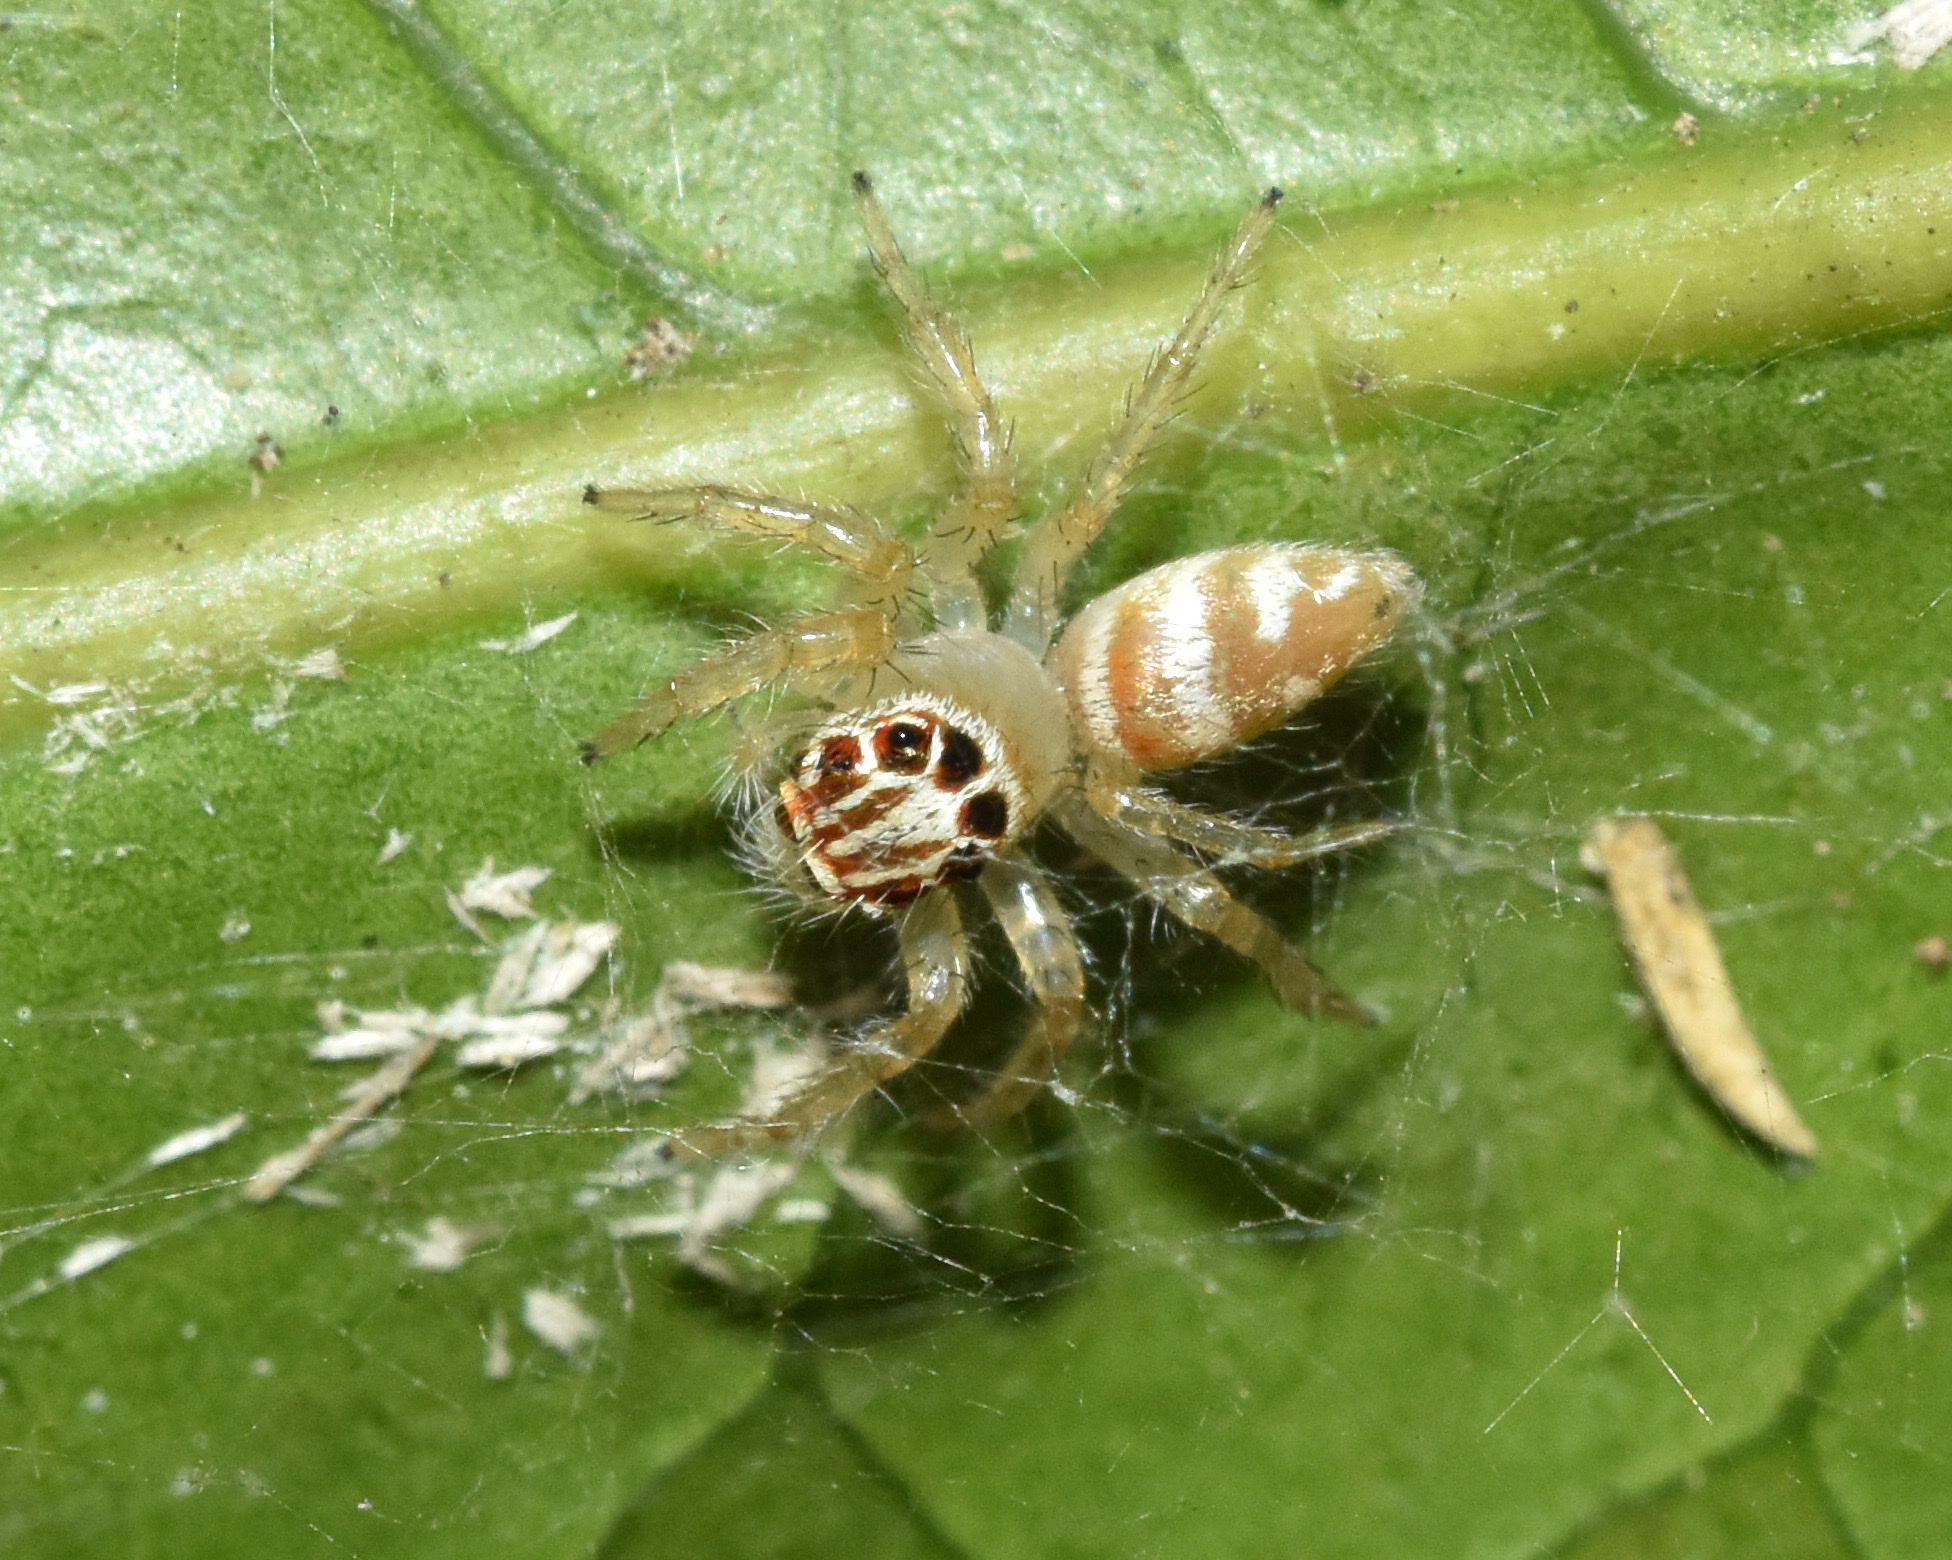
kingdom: Animalia
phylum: Arthropoda
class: Arachnida
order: Araneae
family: Salticidae
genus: Brancus
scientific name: Brancus mustelus
